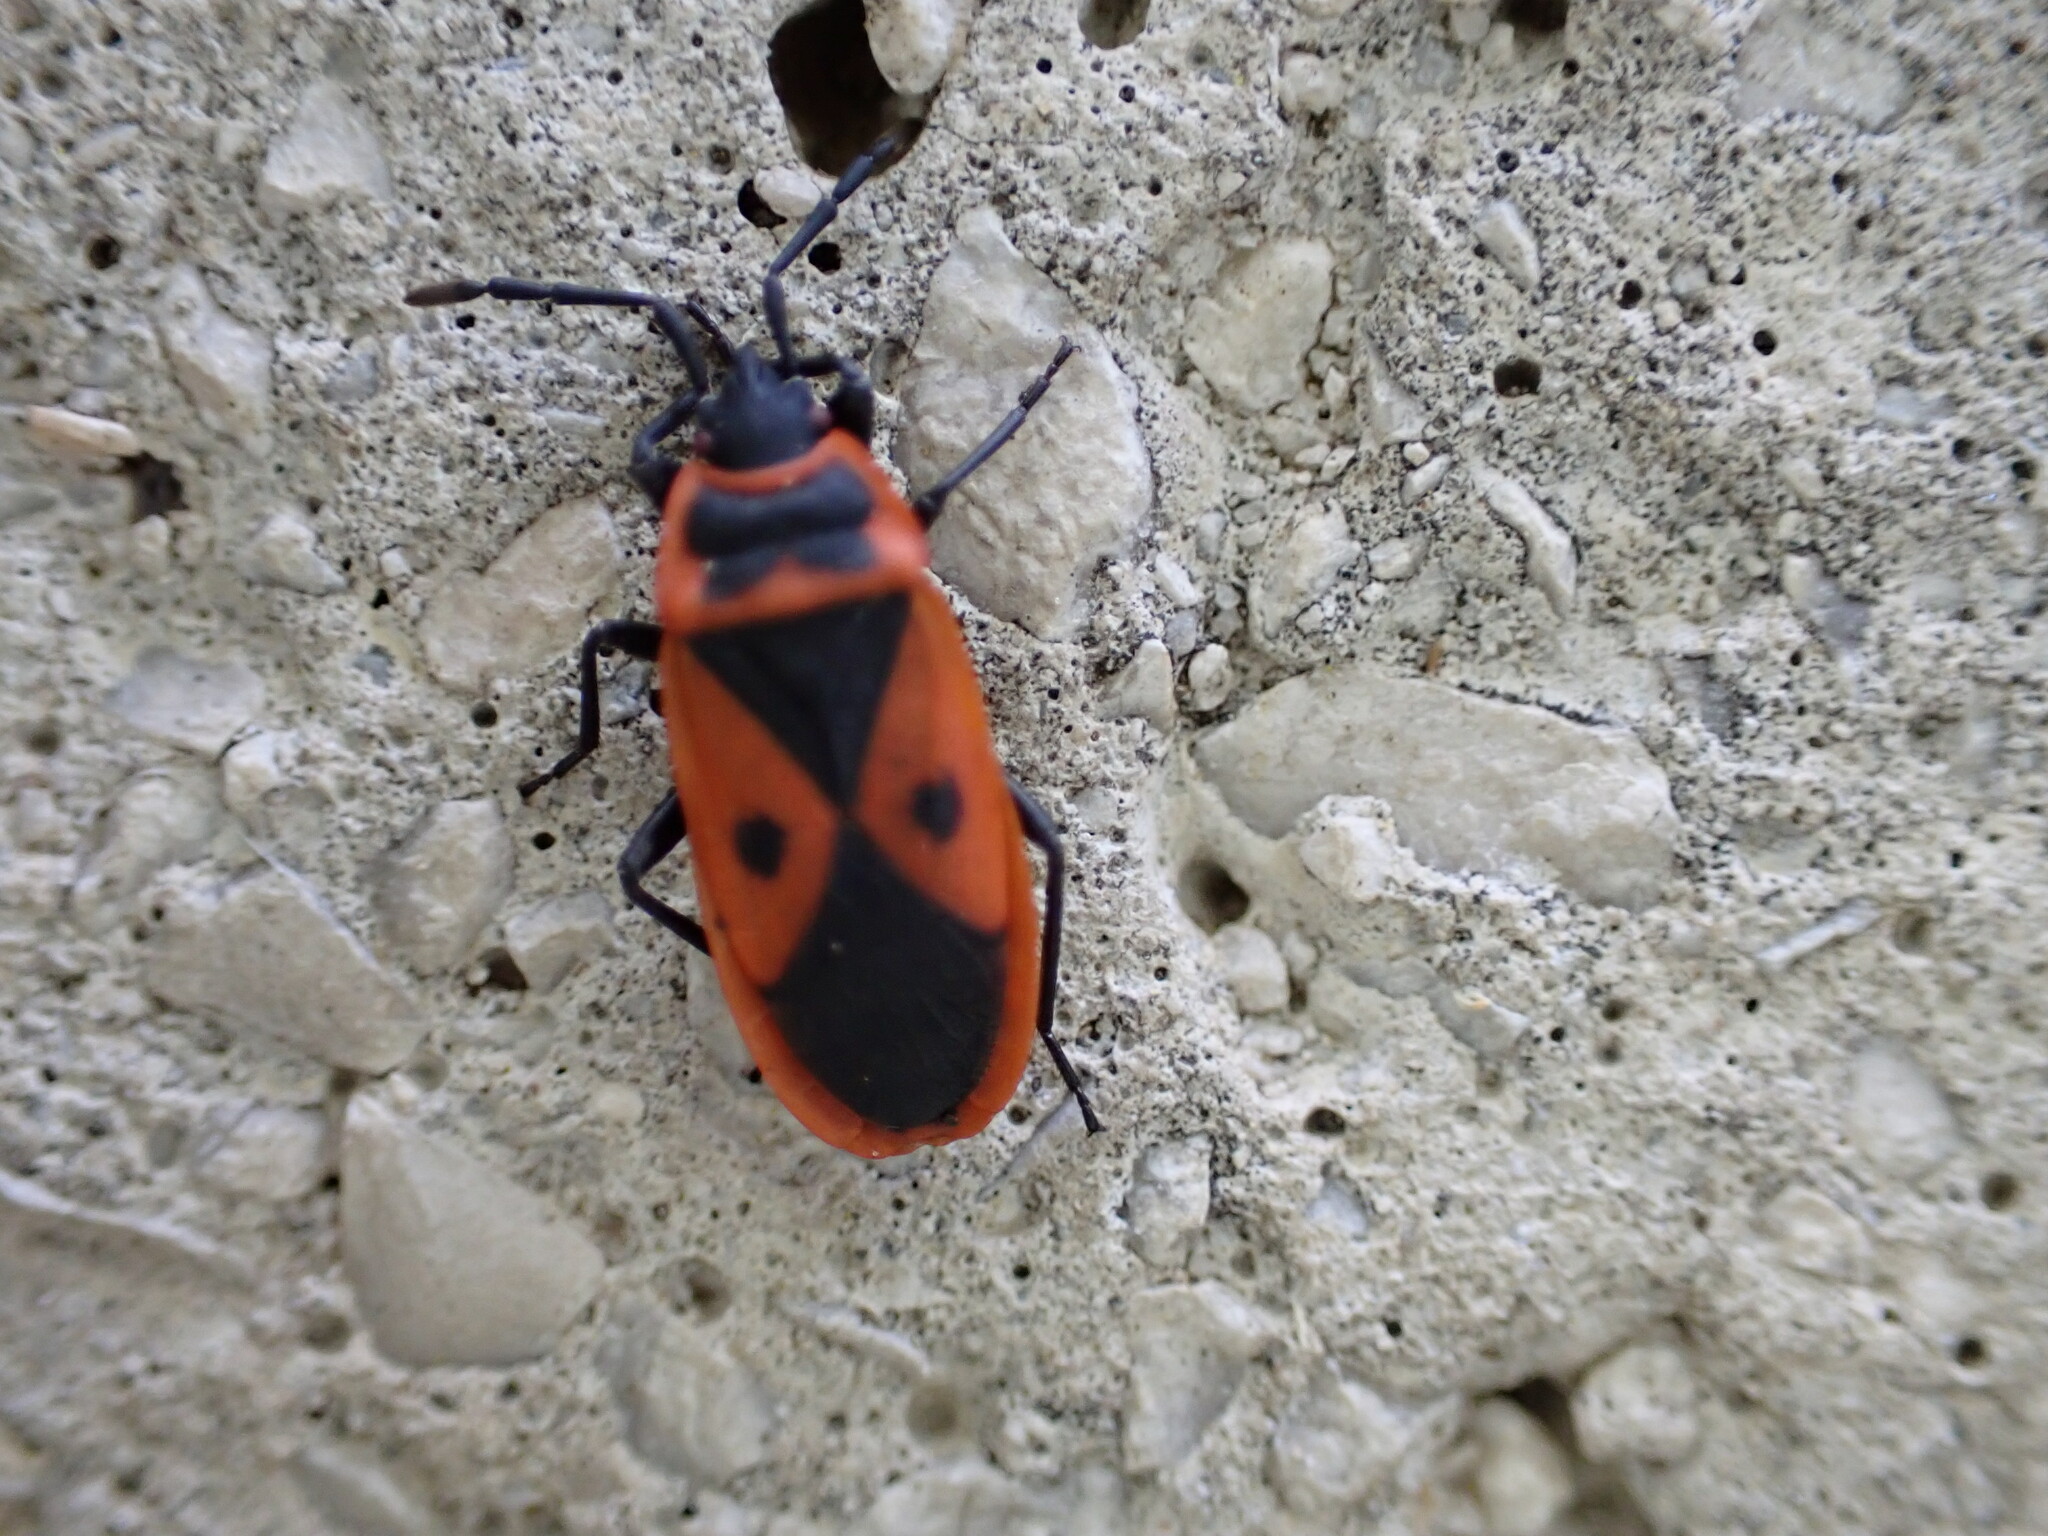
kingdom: Animalia
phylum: Arthropoda
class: Insecta
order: Hemiptera
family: Pyrrhocoridae
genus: Scantius
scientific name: Scantius aegyptius
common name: Red bug
